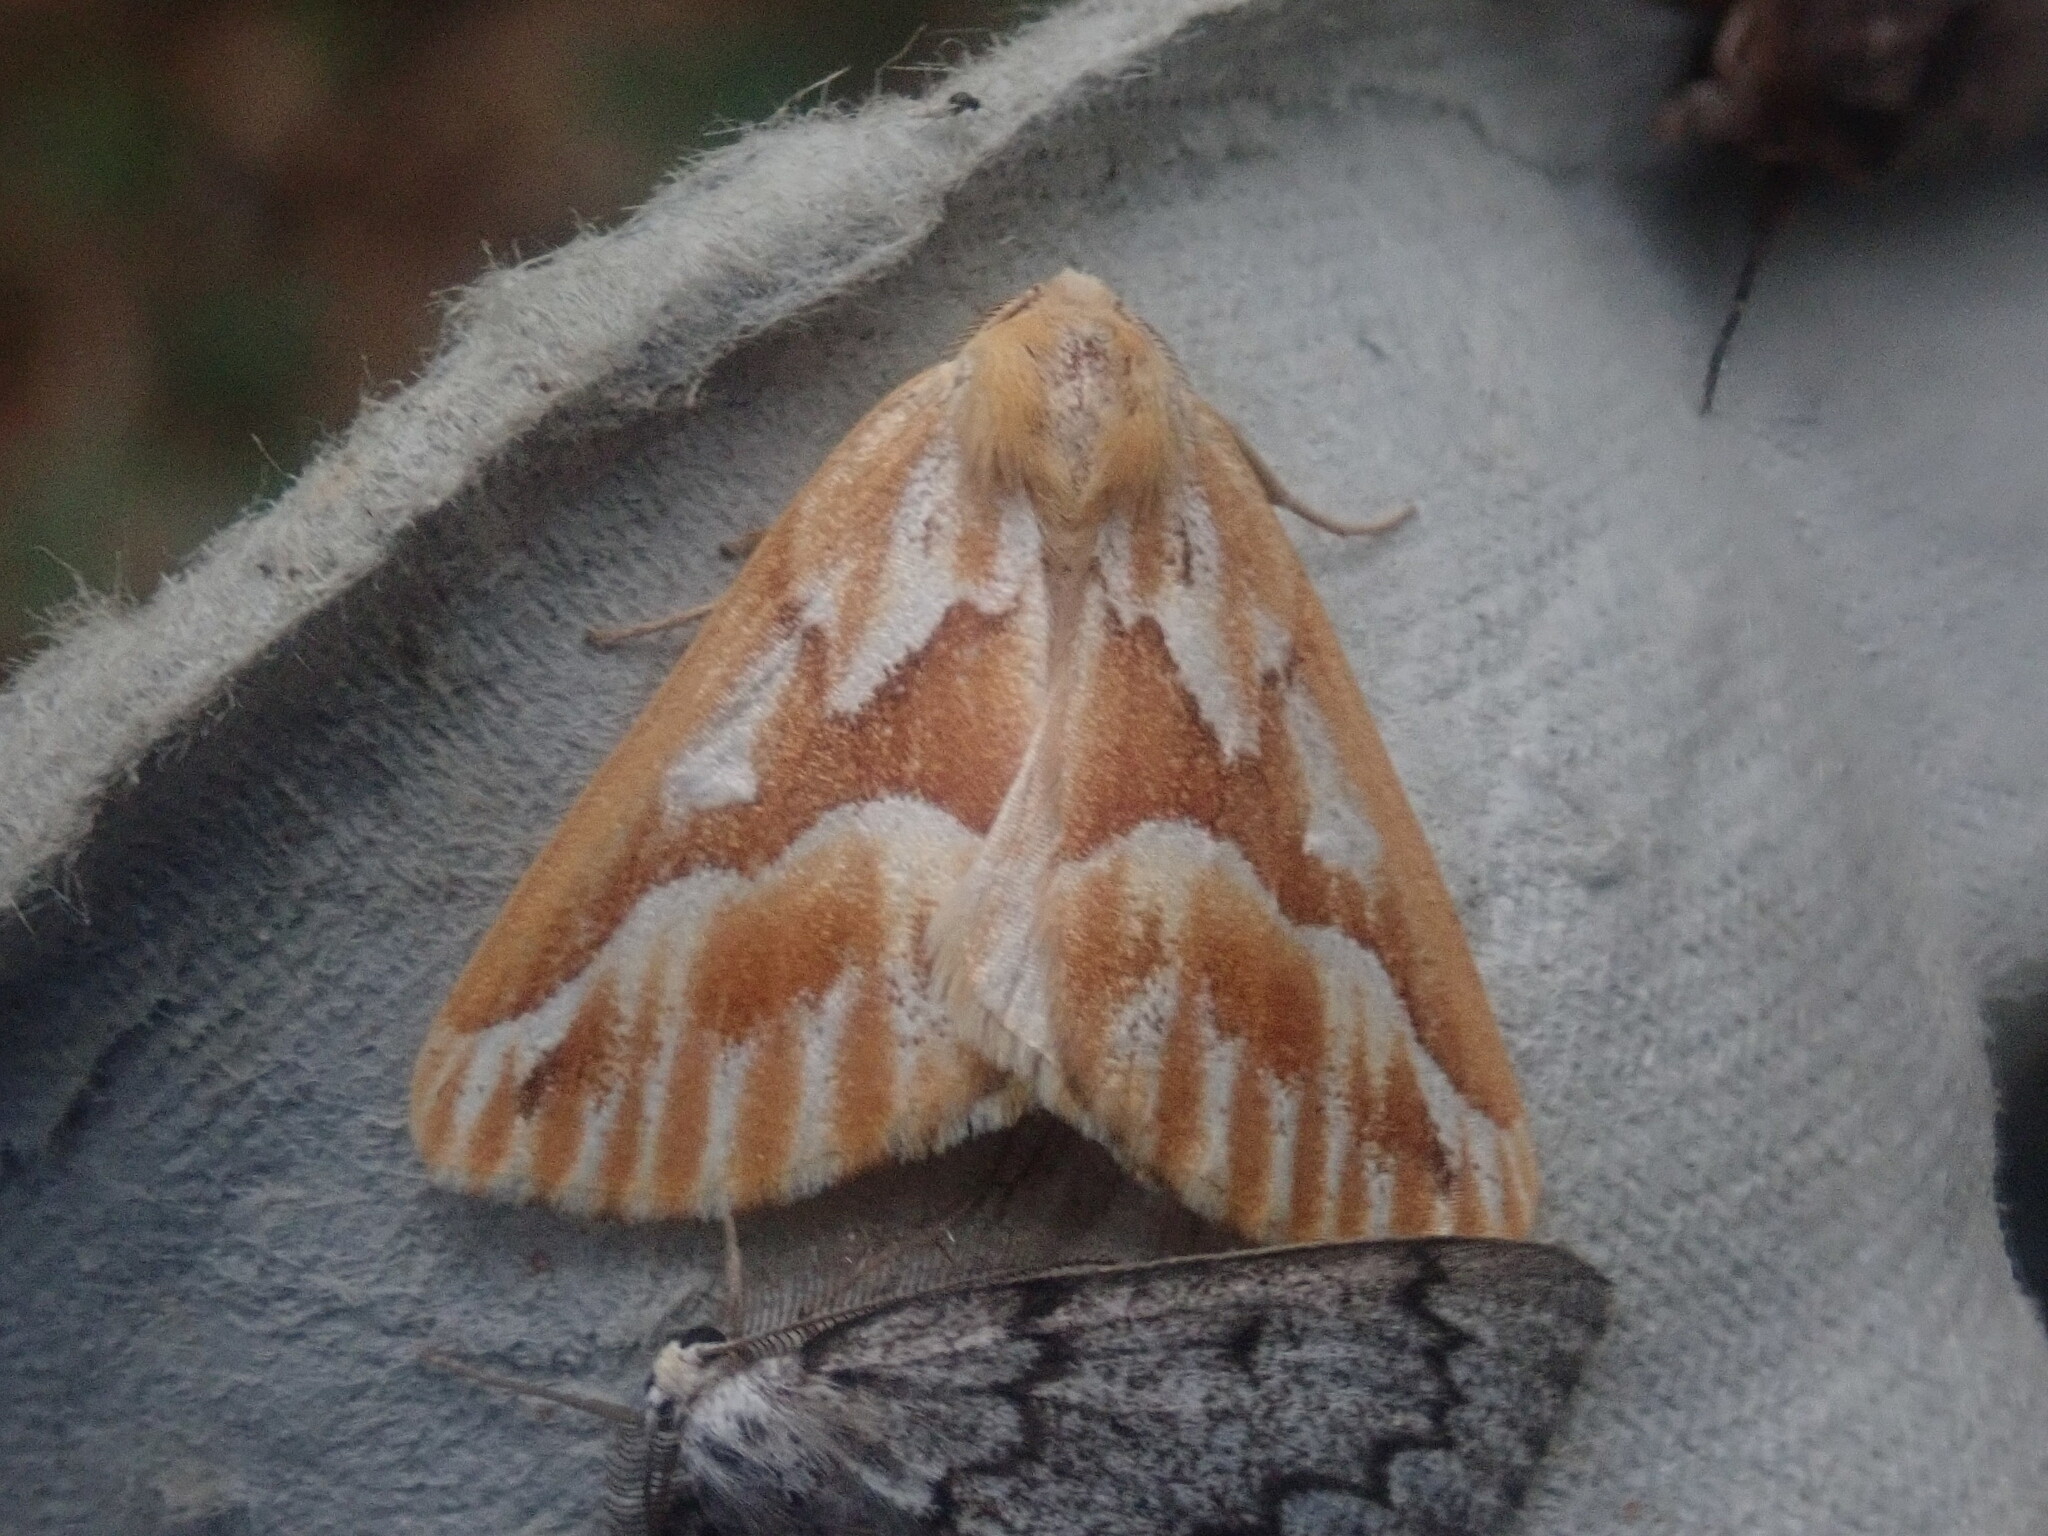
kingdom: Animalia
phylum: Arthropoda
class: Insecta
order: Lepidoptera
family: Geometridae
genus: Caripeta
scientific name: Caripeta piniata
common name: Northern pine looper moth
